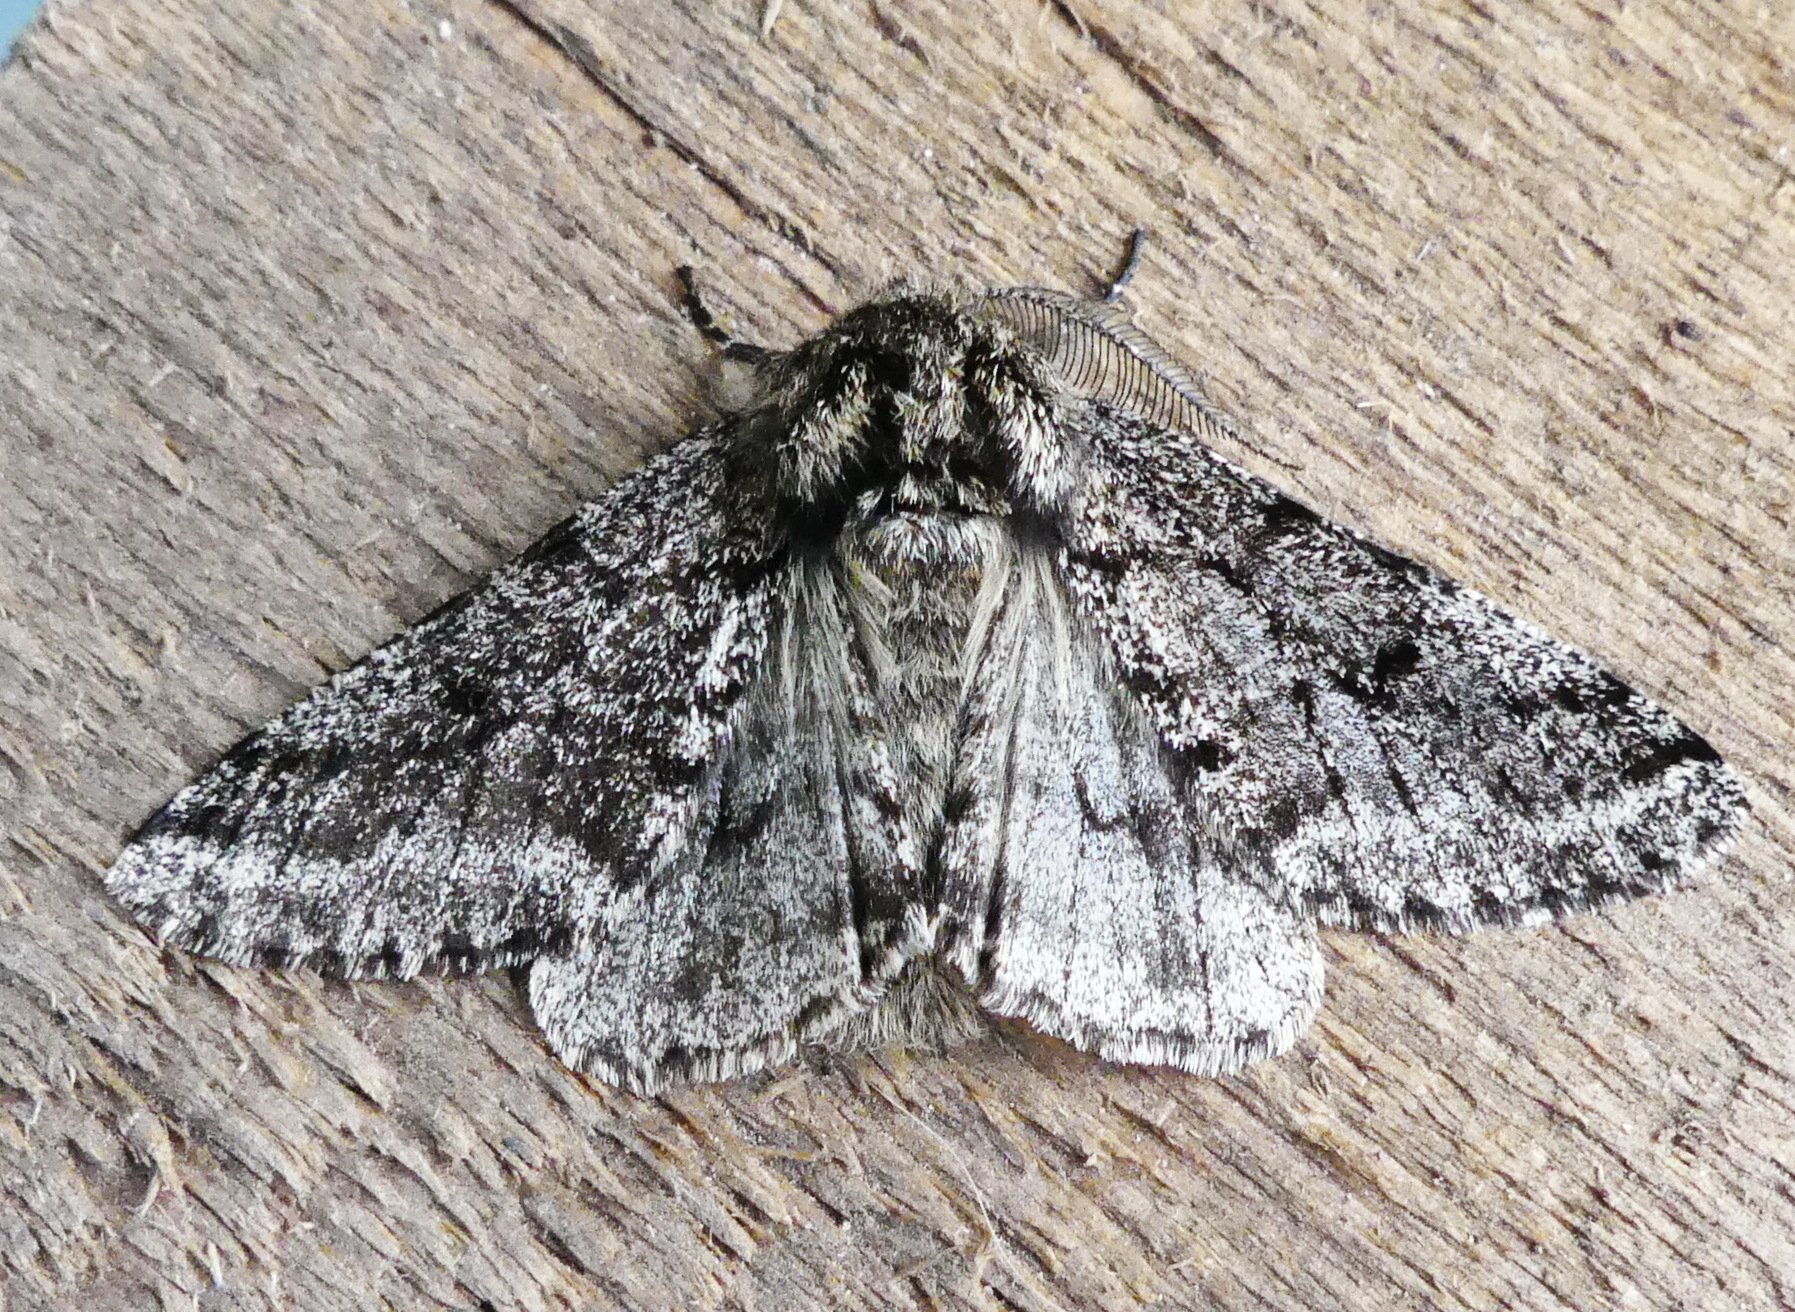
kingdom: Animalia
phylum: Arthropoda
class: Insecta
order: Lepidoptera
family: Geometridae
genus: Lycia
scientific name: Lycia ursaria
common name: Stout spanworm
